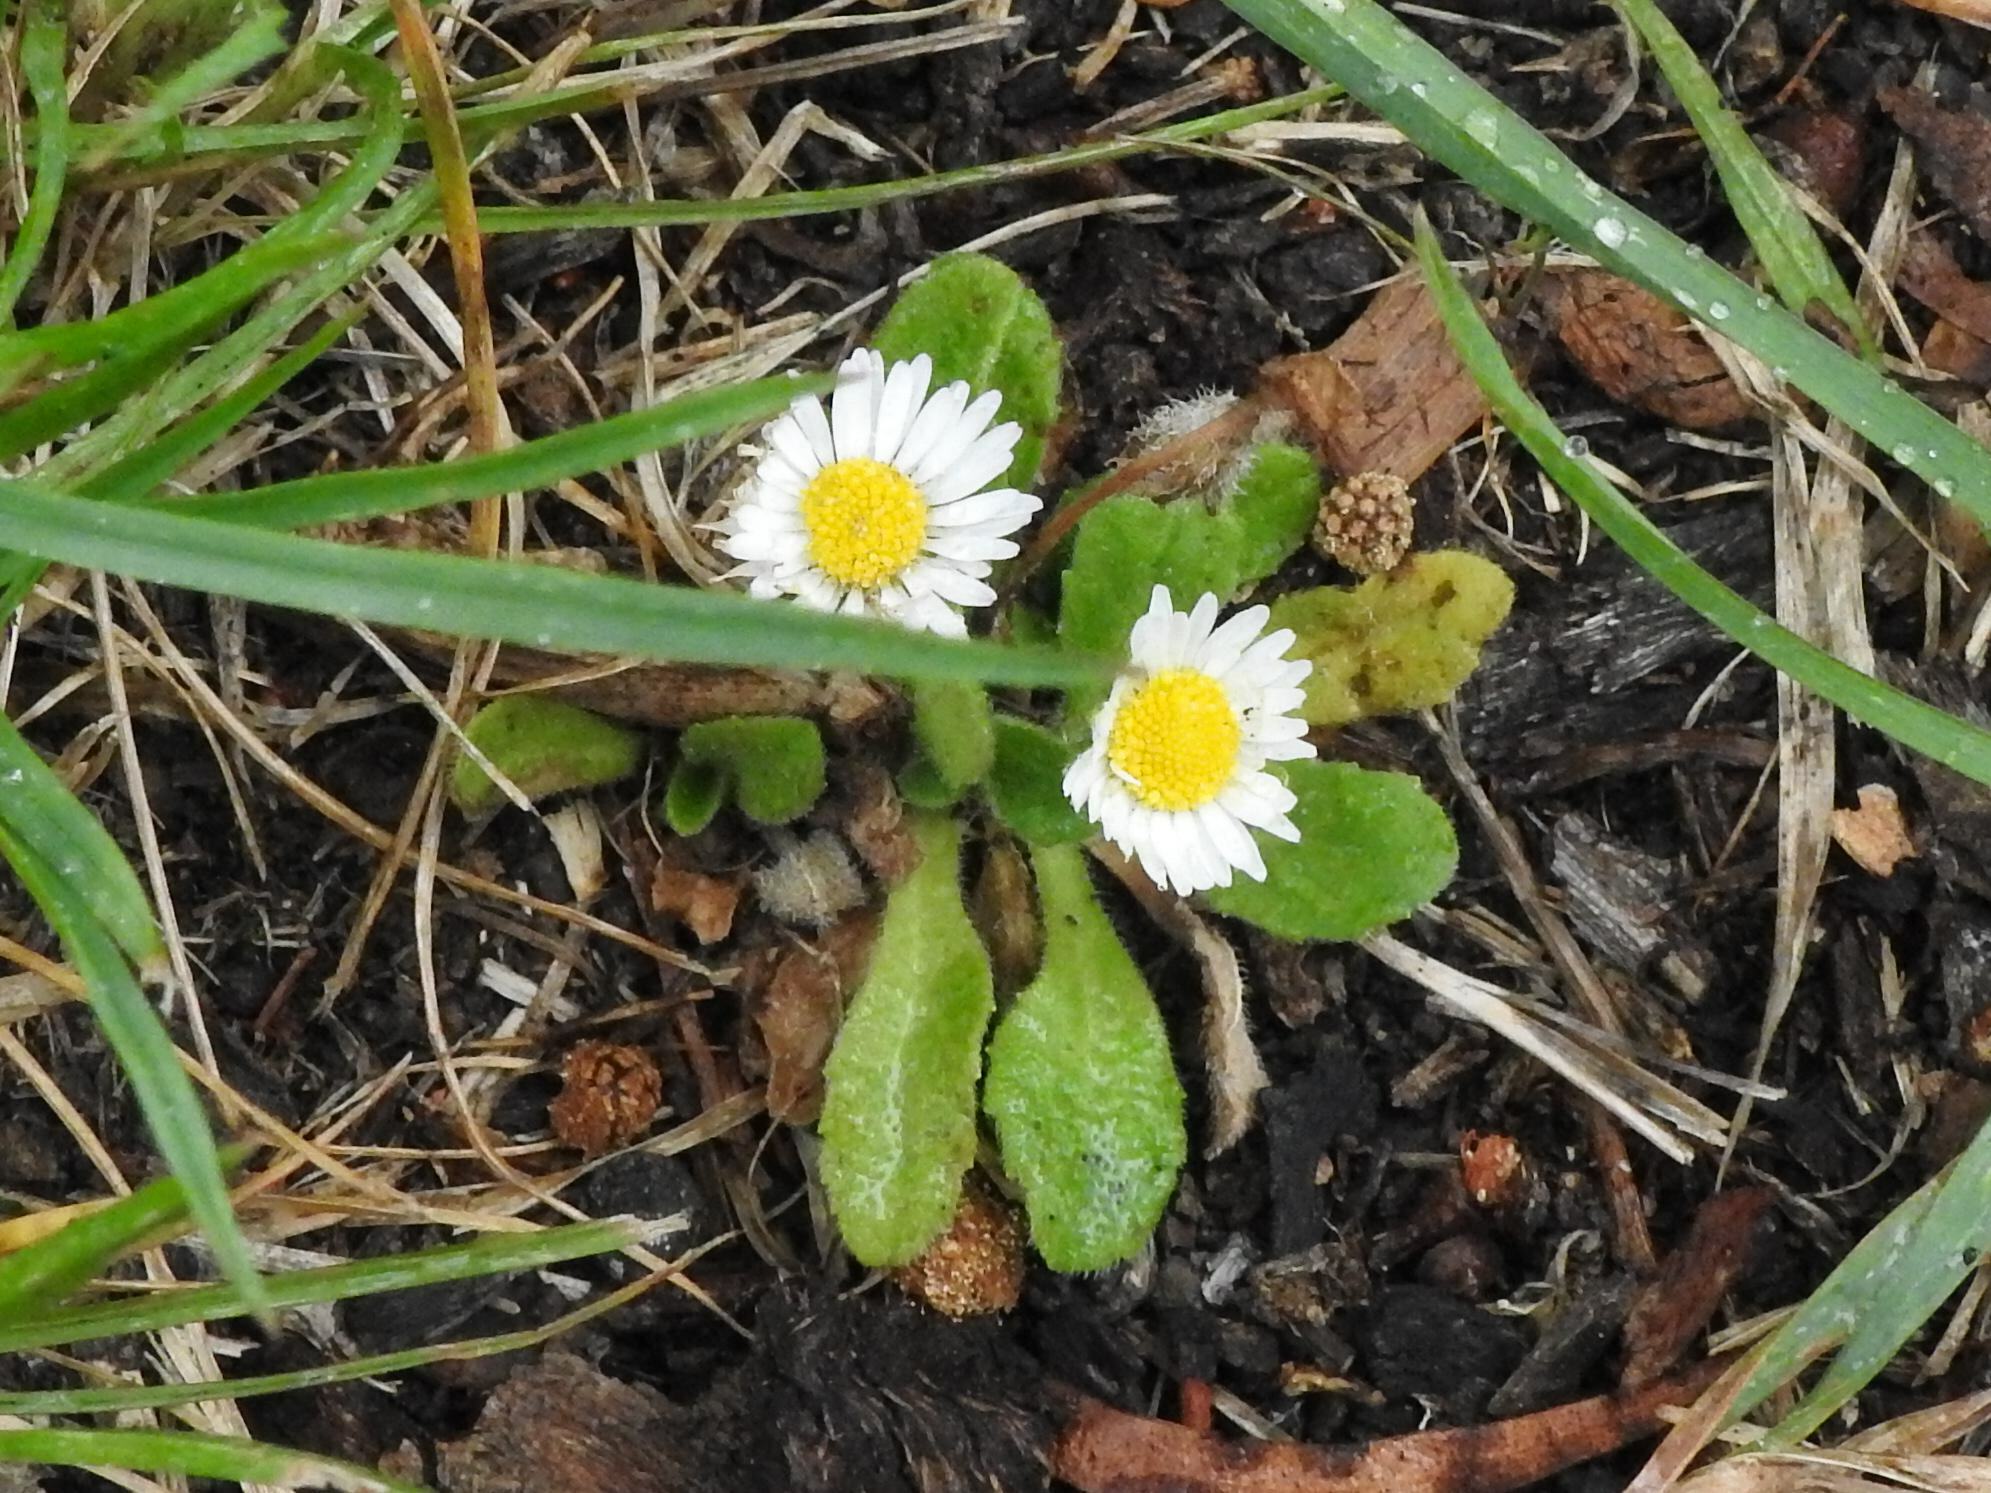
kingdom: Plantae
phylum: Tracheophyta
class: Magnoliopsida
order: Asterales
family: Asteraceae
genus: Bellis
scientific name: Bellis perennis
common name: Lawndaisy
